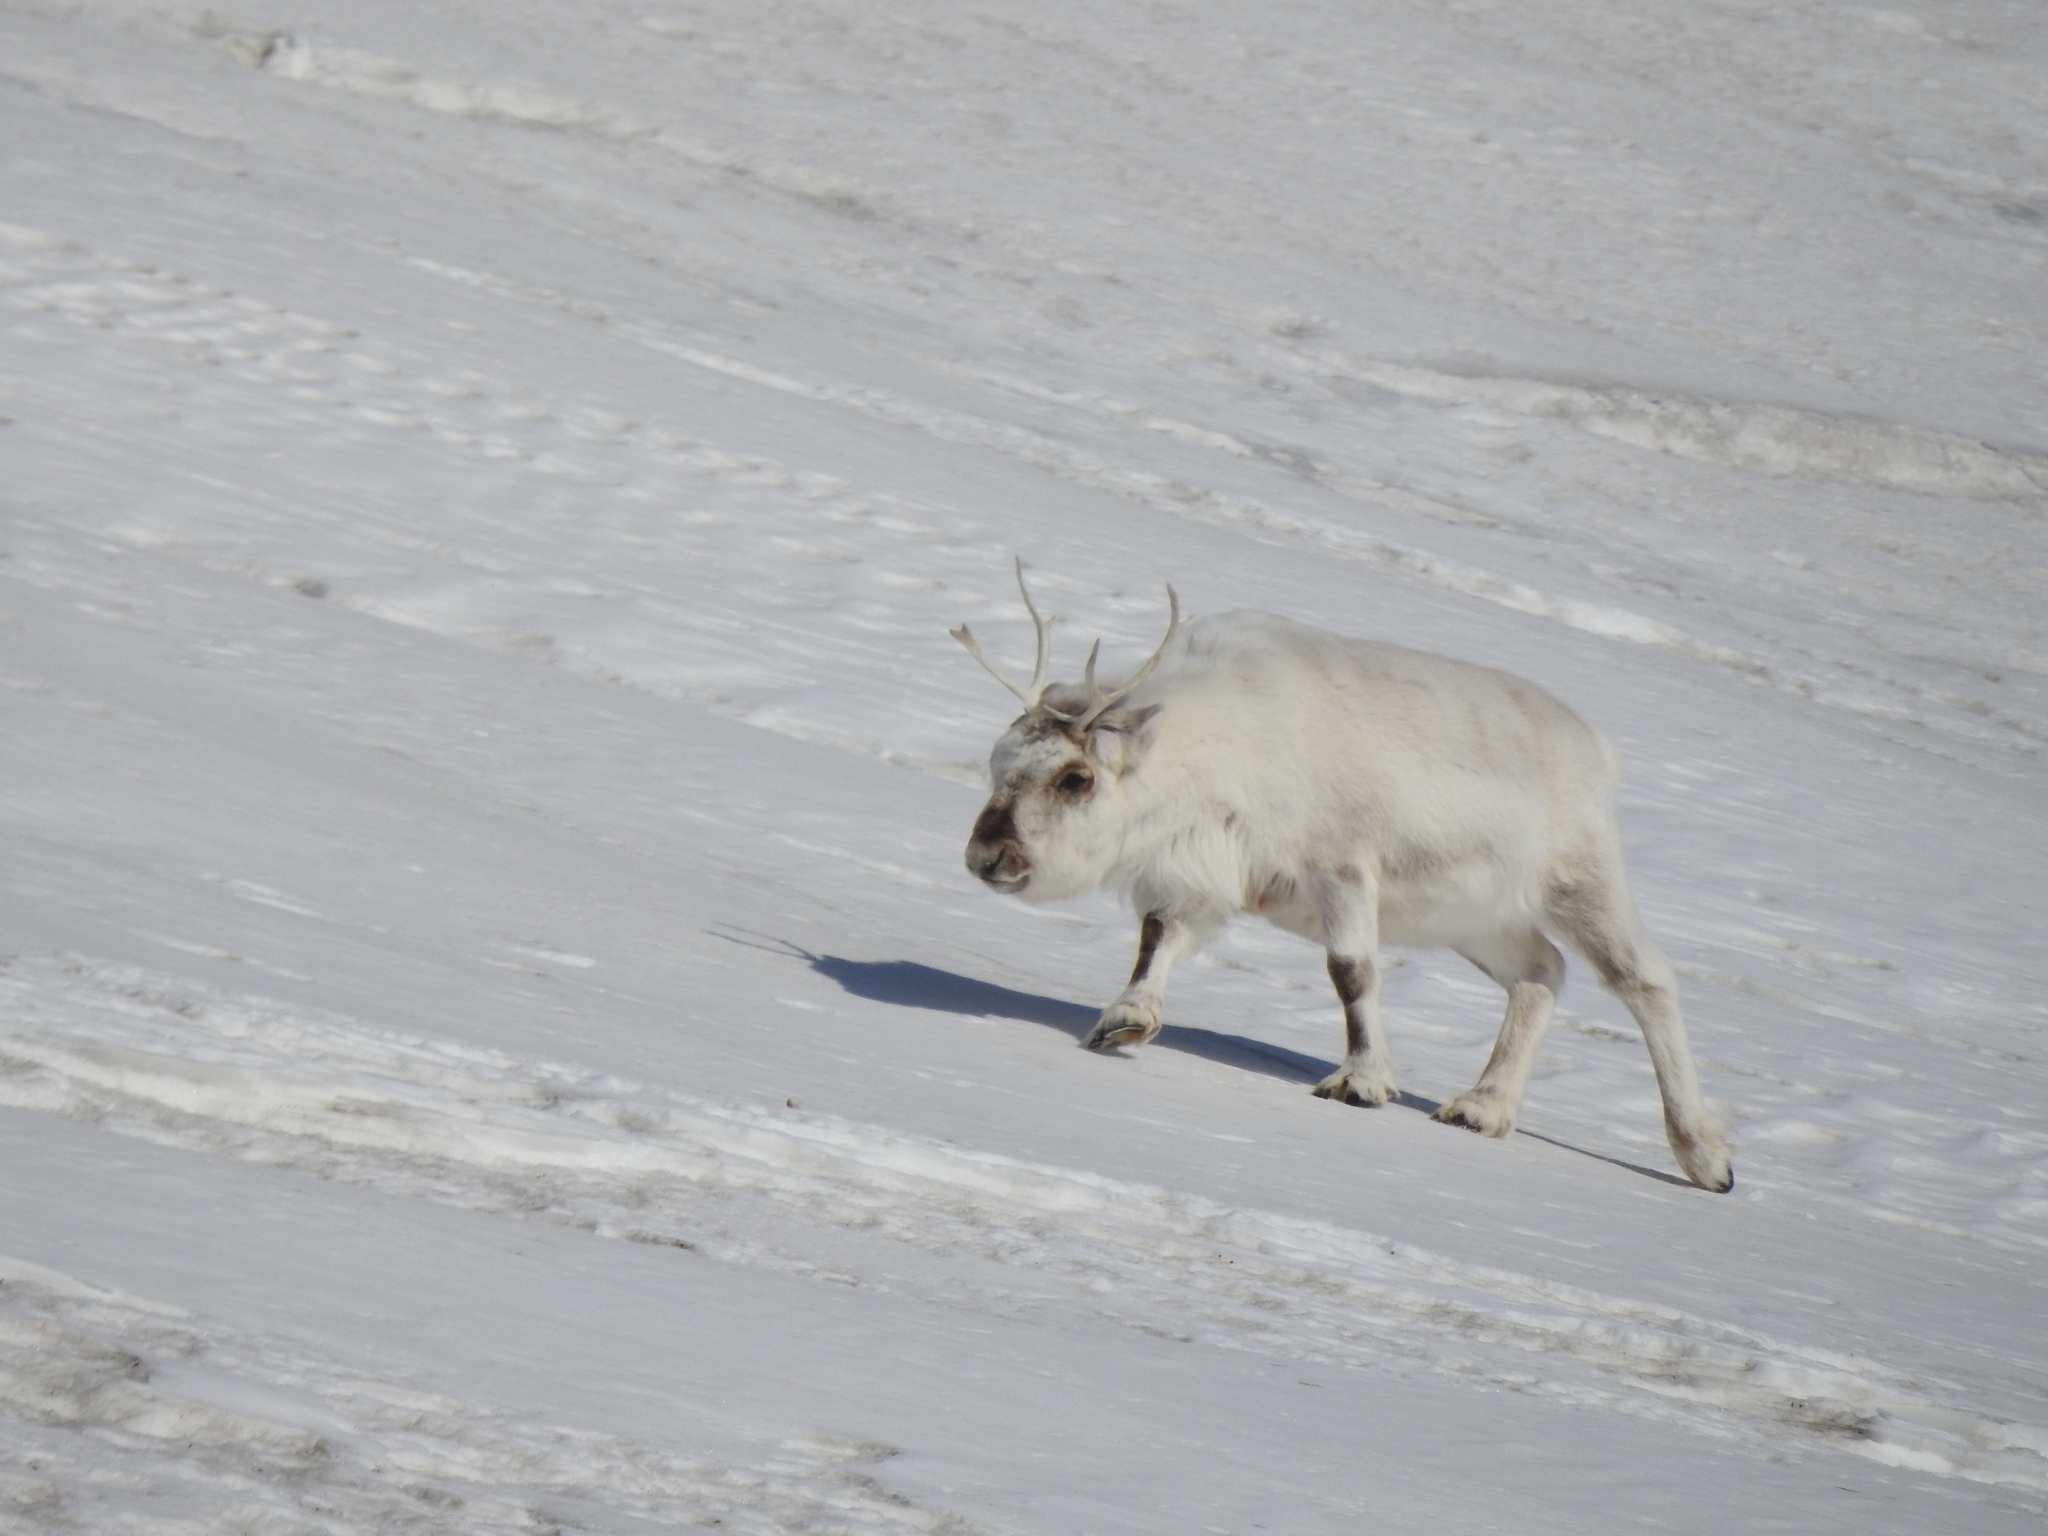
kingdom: Animalia
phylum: Chordata
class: Mammalia
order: Artiodactyla
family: Cervidae
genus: Rangifer
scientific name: Rangifer tarandus
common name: Reindeer
